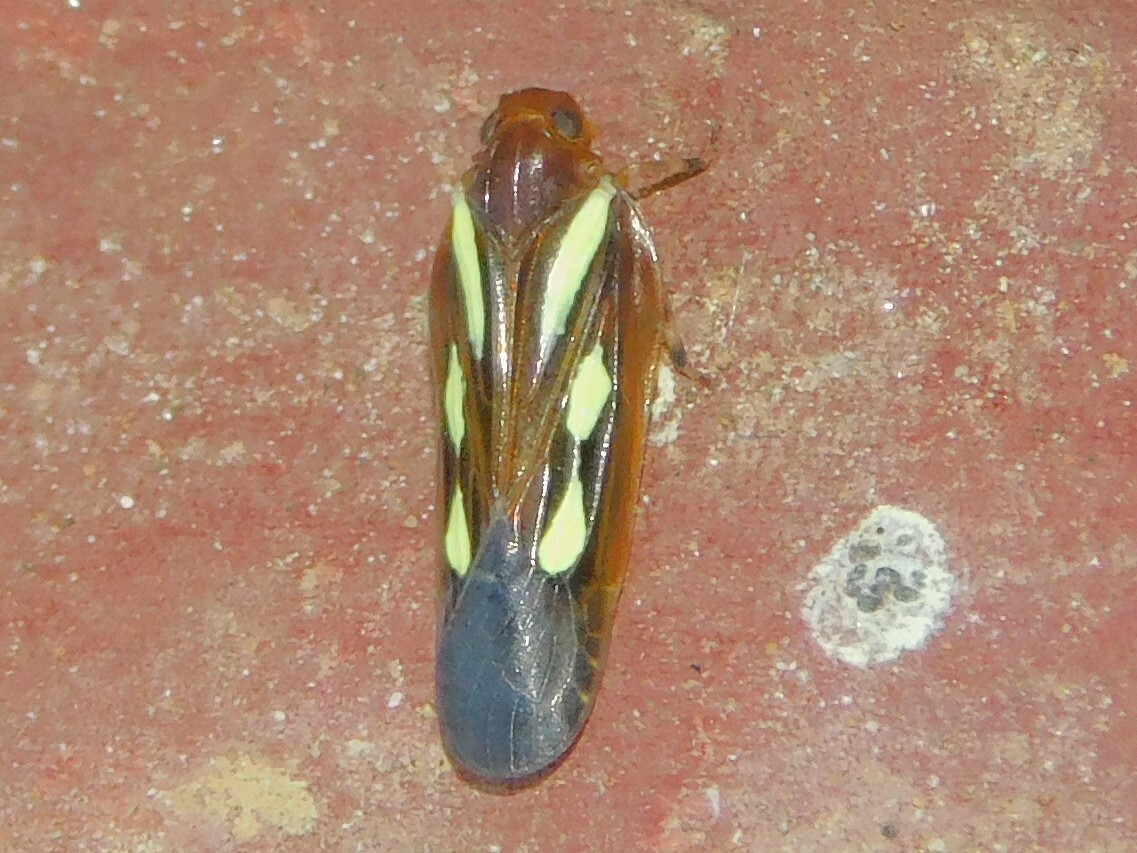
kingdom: Animalia
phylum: Arthropoda
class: Insecta
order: Hemiptera
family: Achilidae
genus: Lanuvia
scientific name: Lanuvia
